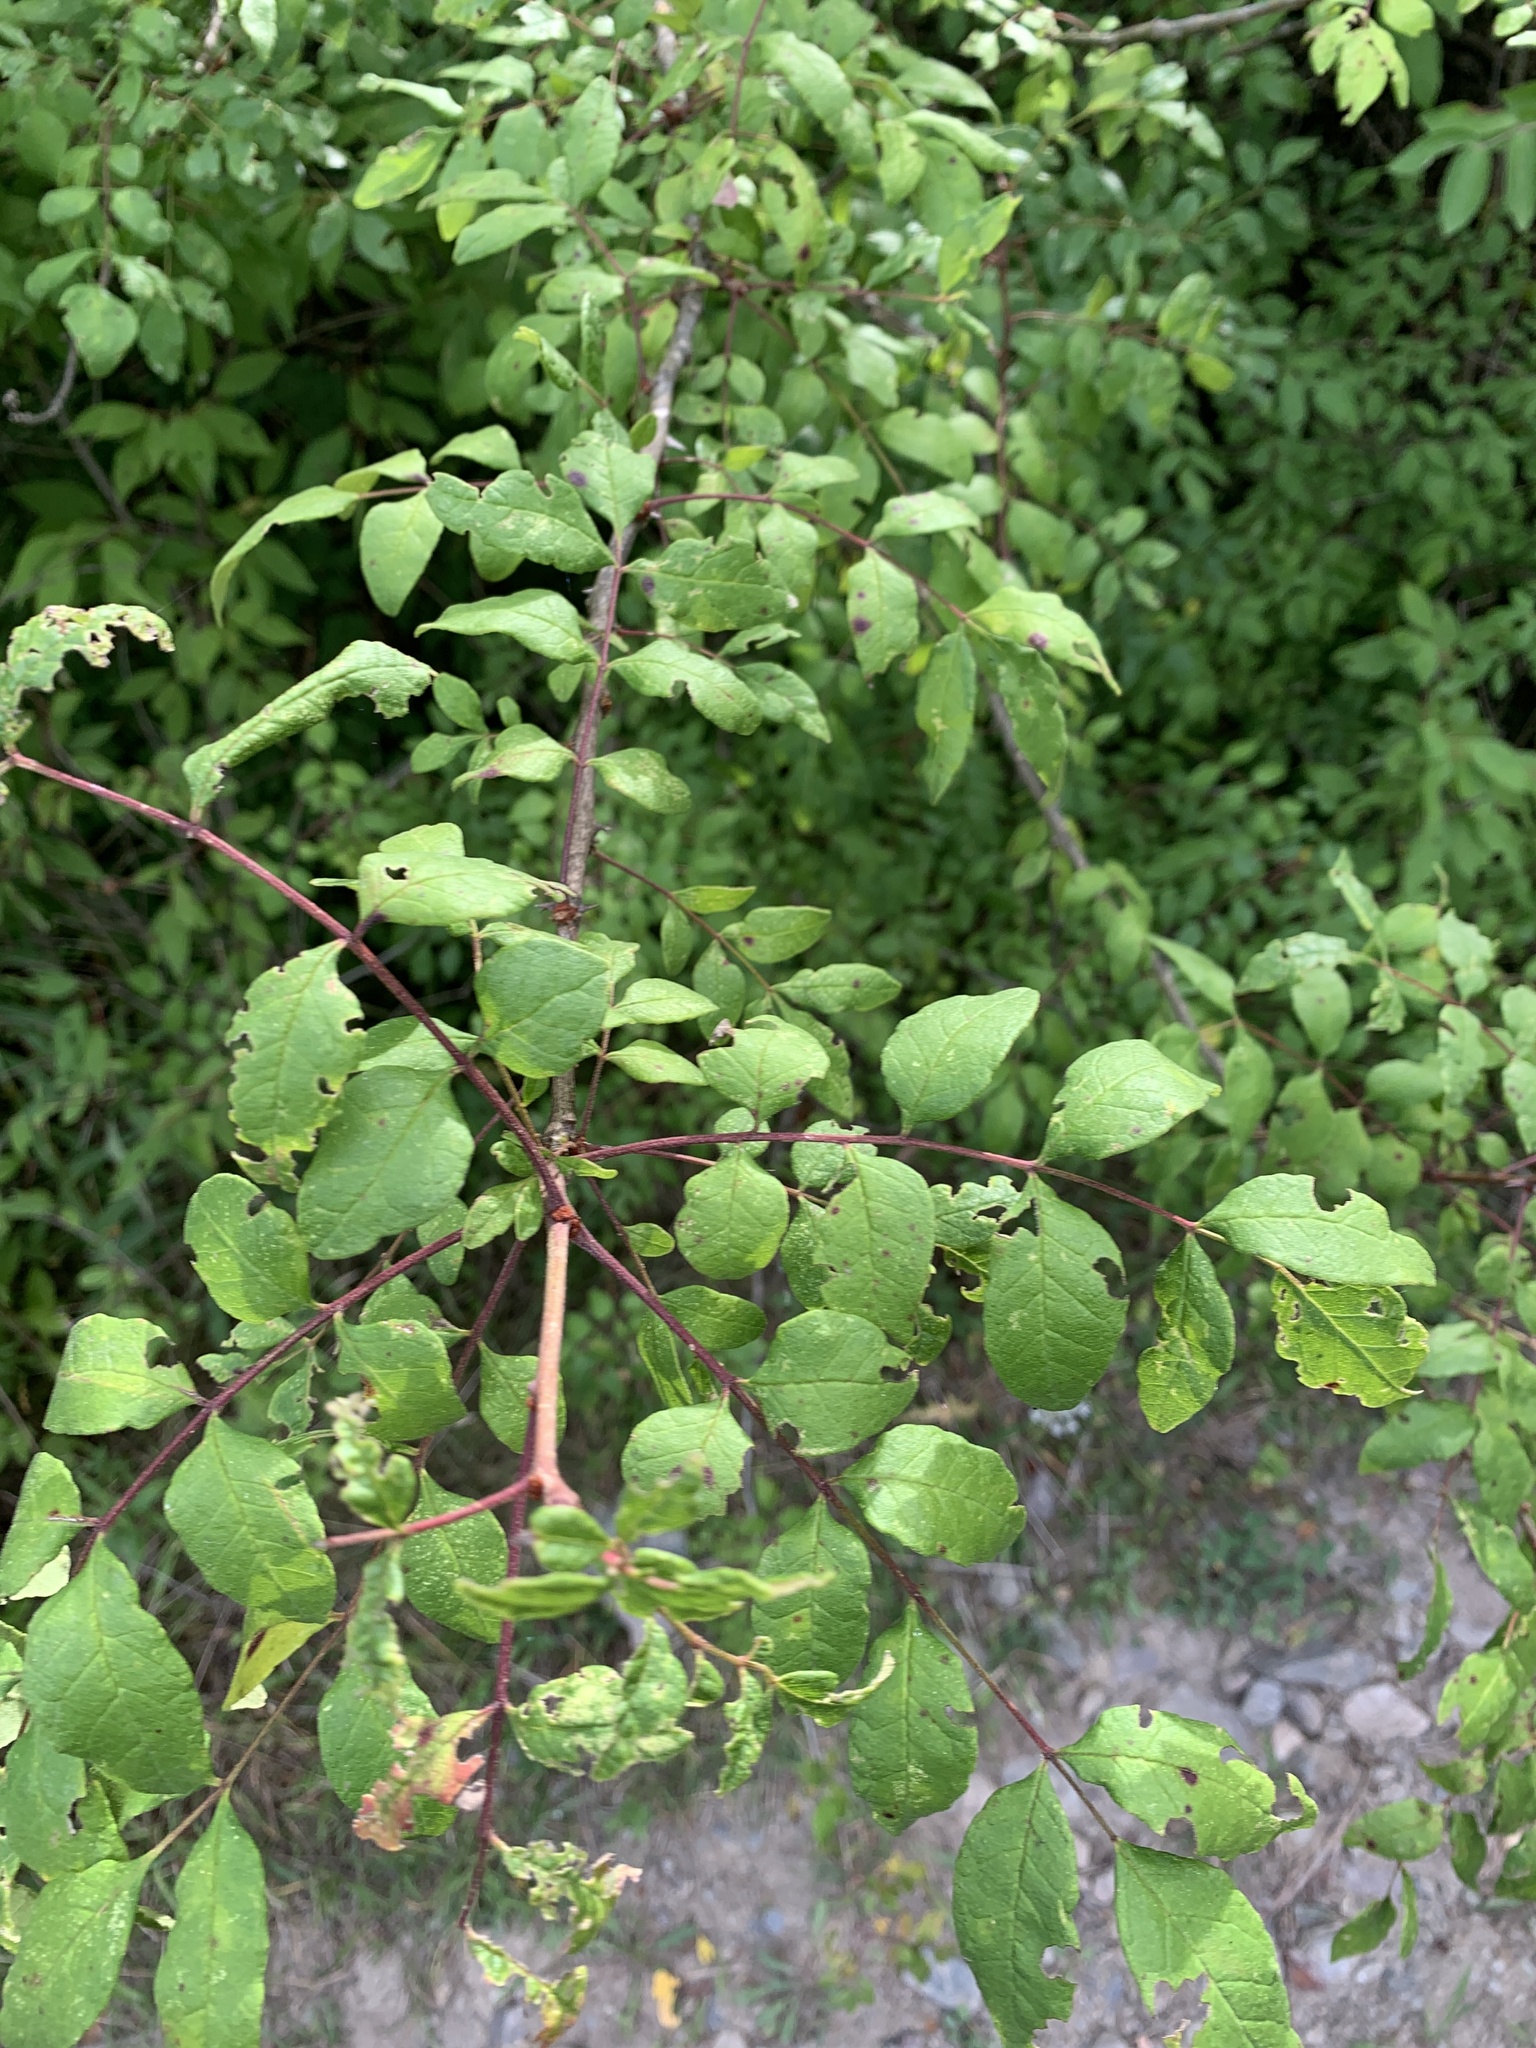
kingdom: Plantae
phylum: Tracheophyta
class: Magnoliopsida
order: Sapindales
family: Rutaceae
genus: Zanthoxylum
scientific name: Zanthoxylum americanum
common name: Northern prickly-ash
